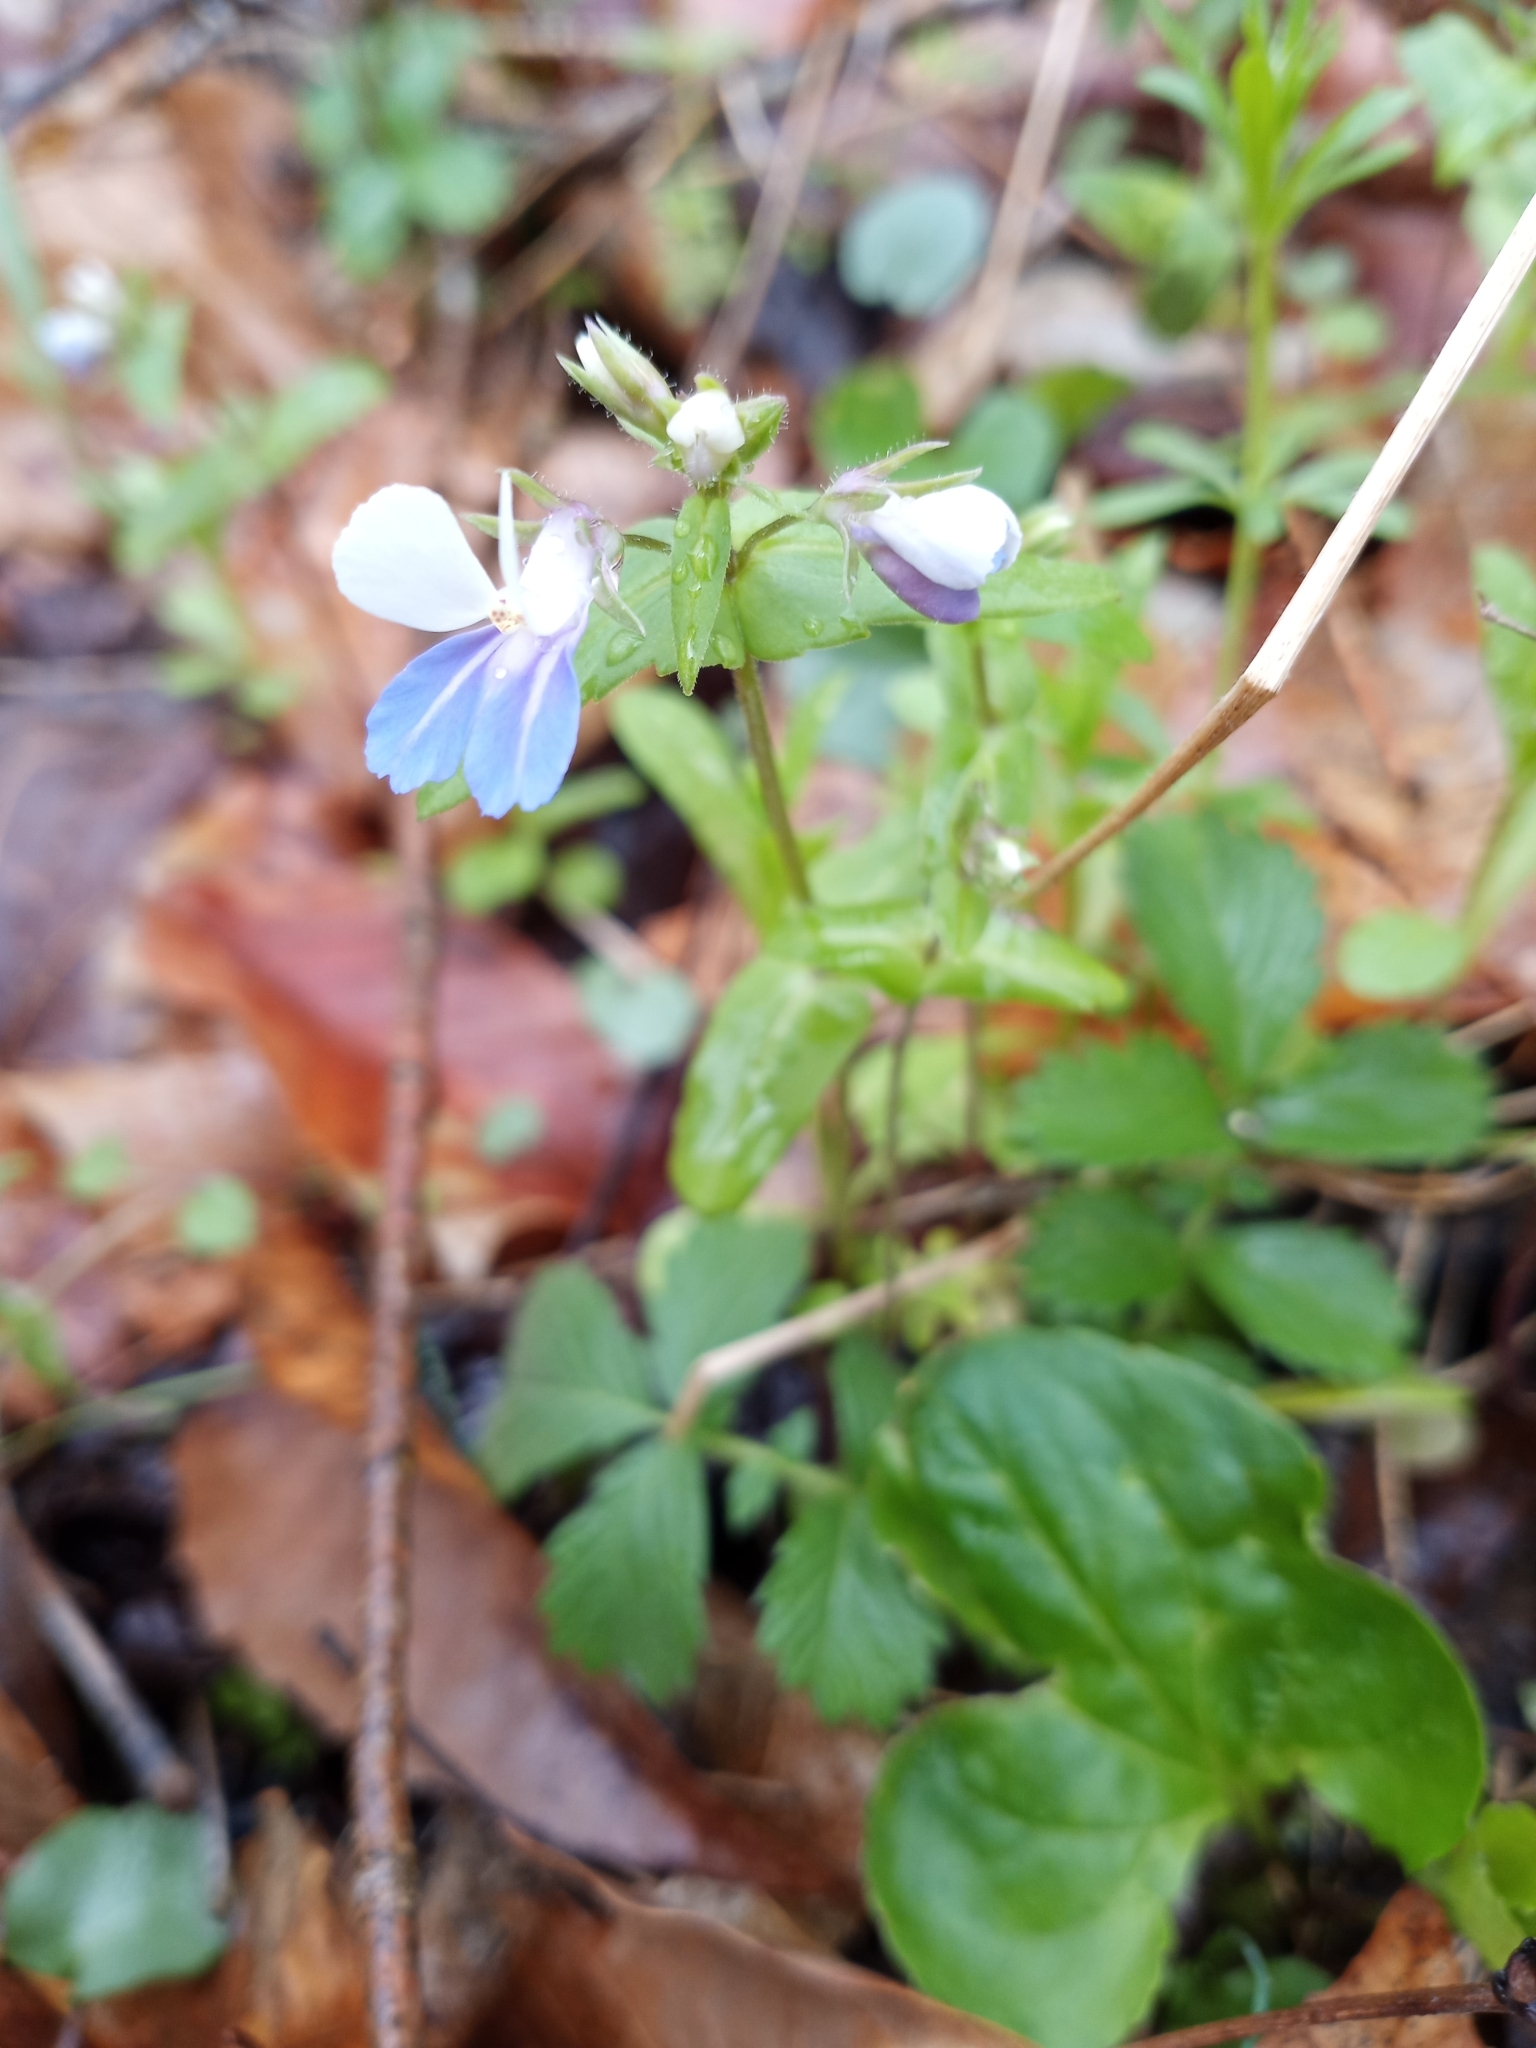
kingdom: Plantae
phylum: Tracheophyta
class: Magnoliopsida
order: Lamiales
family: Plantaginaceae
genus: Collinsia
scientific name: Collinsia verna
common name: Broad-leaved collinsia
